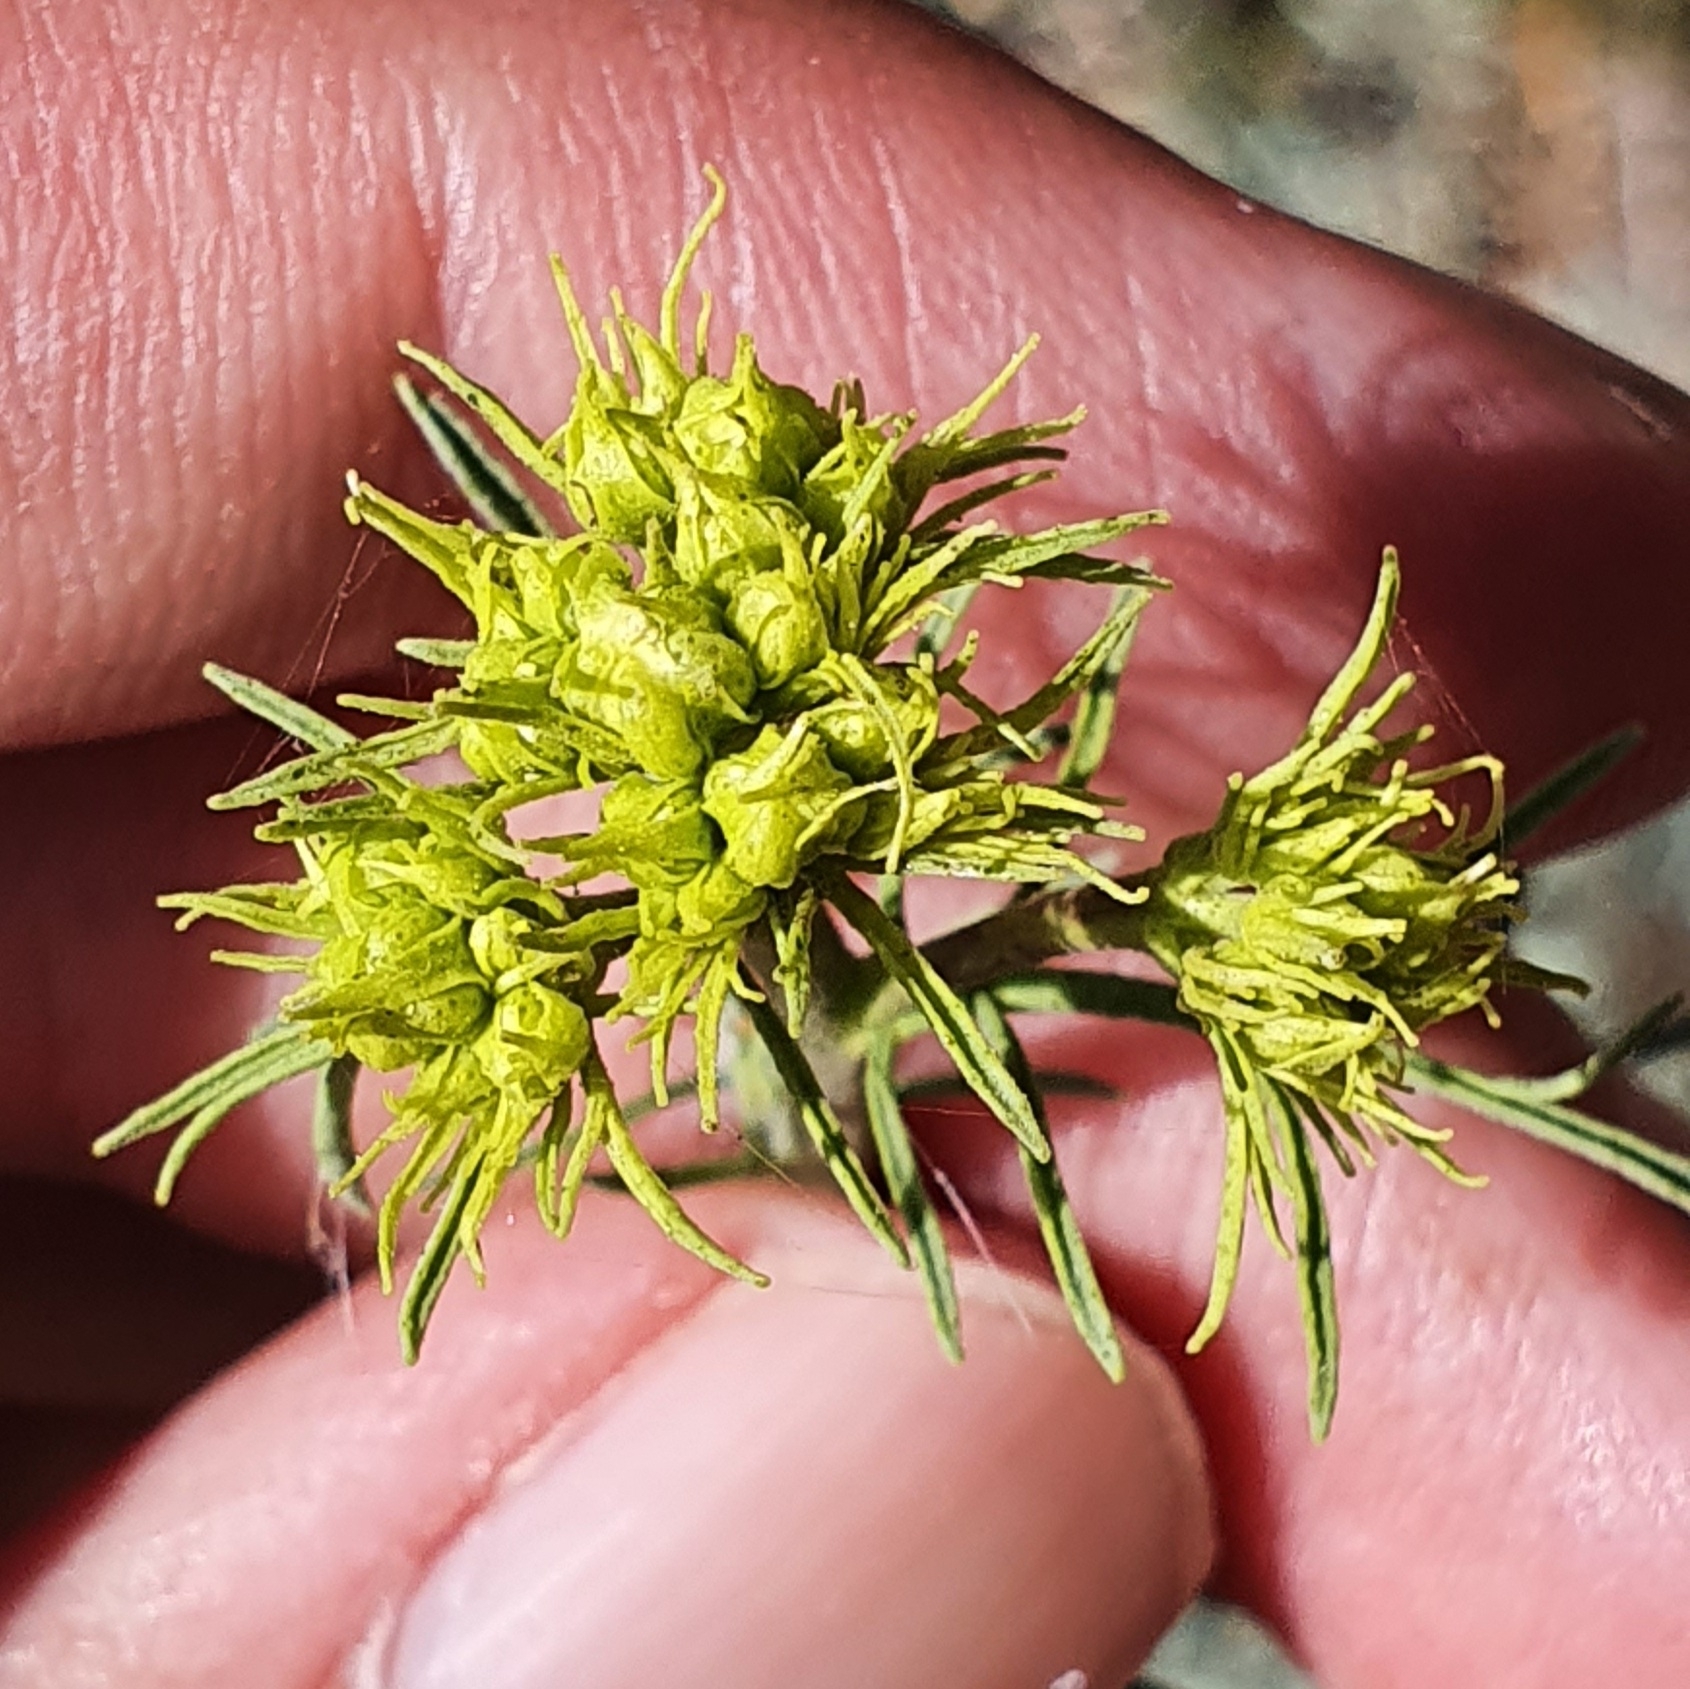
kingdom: Plantae
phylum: Tracheophyta
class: Magnoliopsida
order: Sapindales
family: Rutaceae
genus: Ruta
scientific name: Ruta montana
